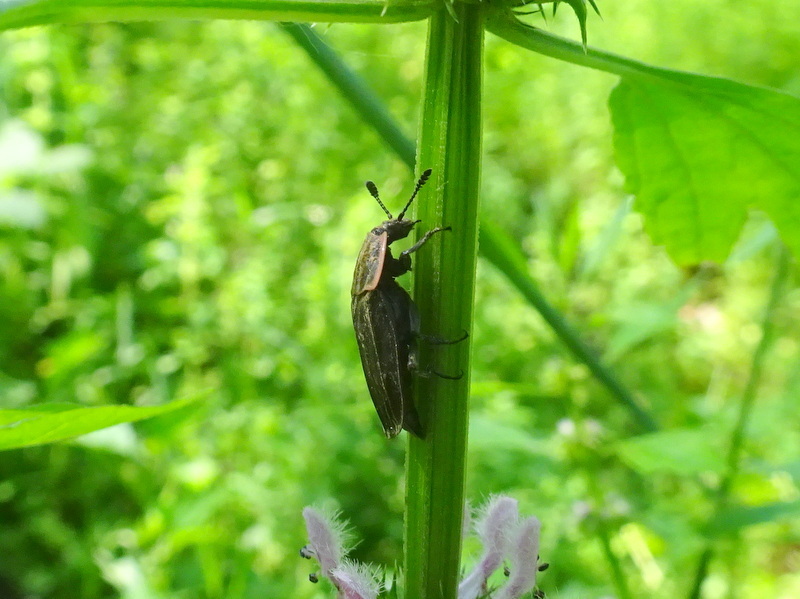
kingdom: Animalia
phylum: Arthropoda
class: Insecta
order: Coleoptera
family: Staphylinidae
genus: Oiceoptoma
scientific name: Oiceoptoma noveboracense
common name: Margined carrion beetle
